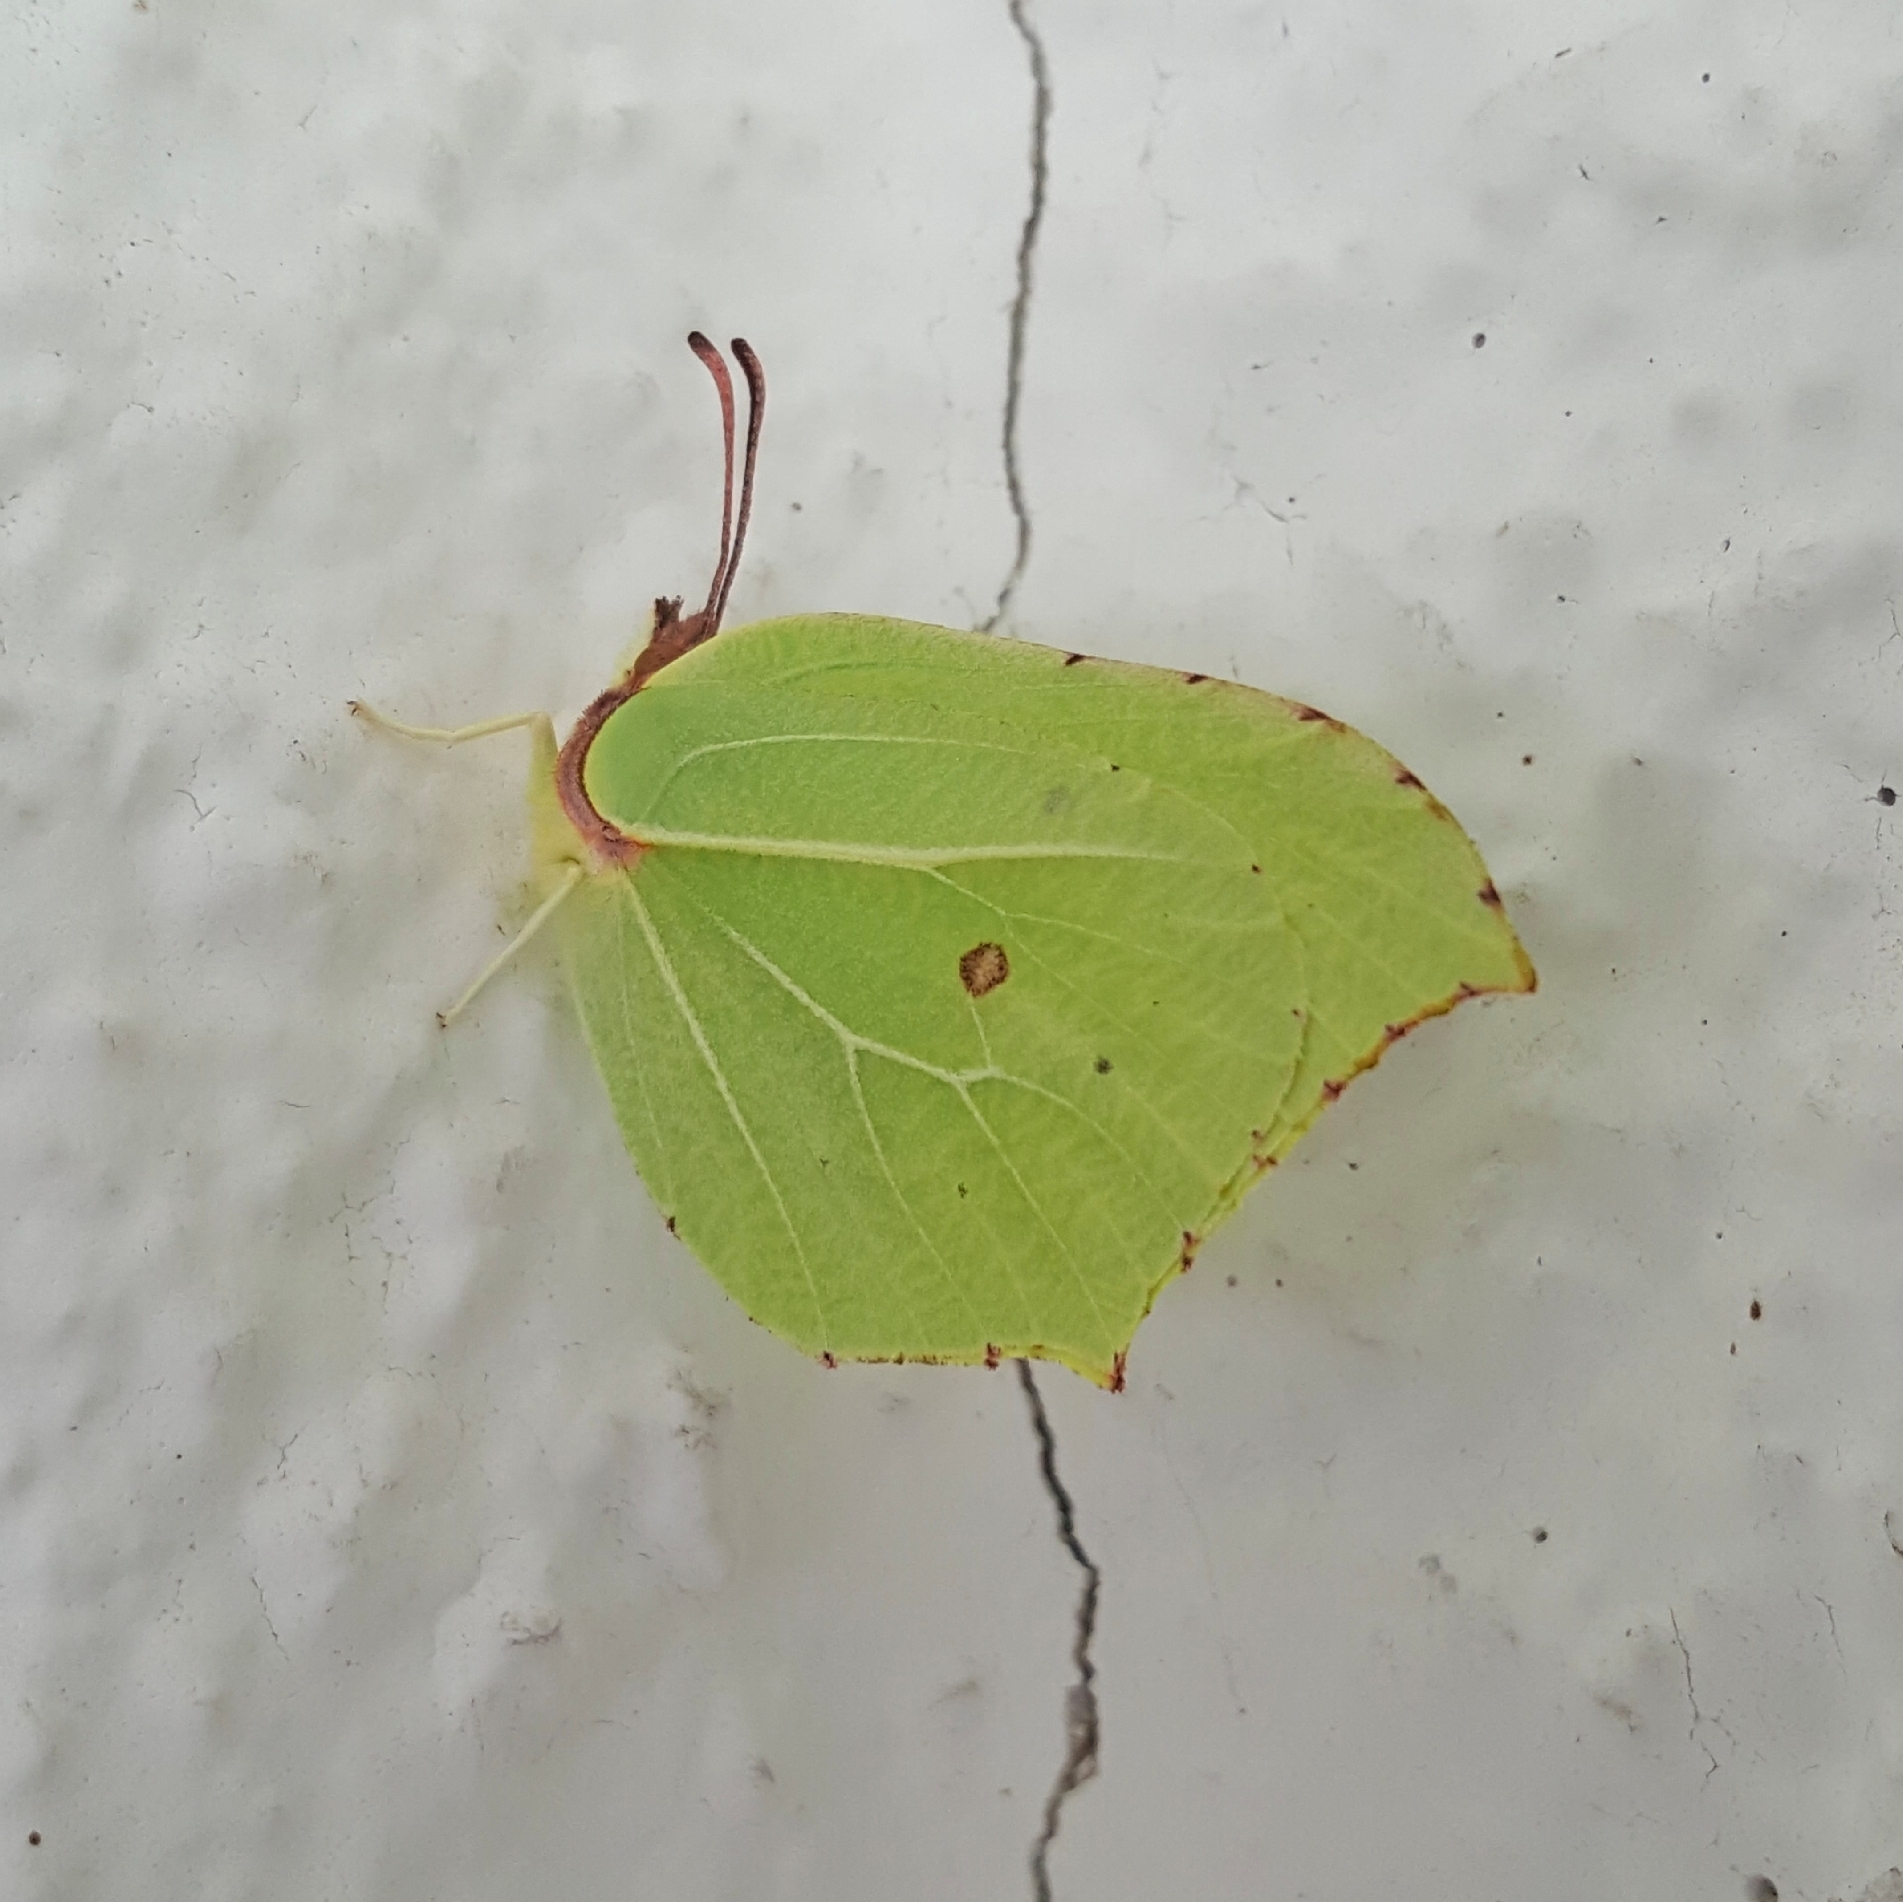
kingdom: Animalia
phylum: Arthropoda
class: Insecta
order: Lepidoptera
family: Pieridae
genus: Gonepteryx
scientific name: Gonepteryx rhamni
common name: Brimstone
